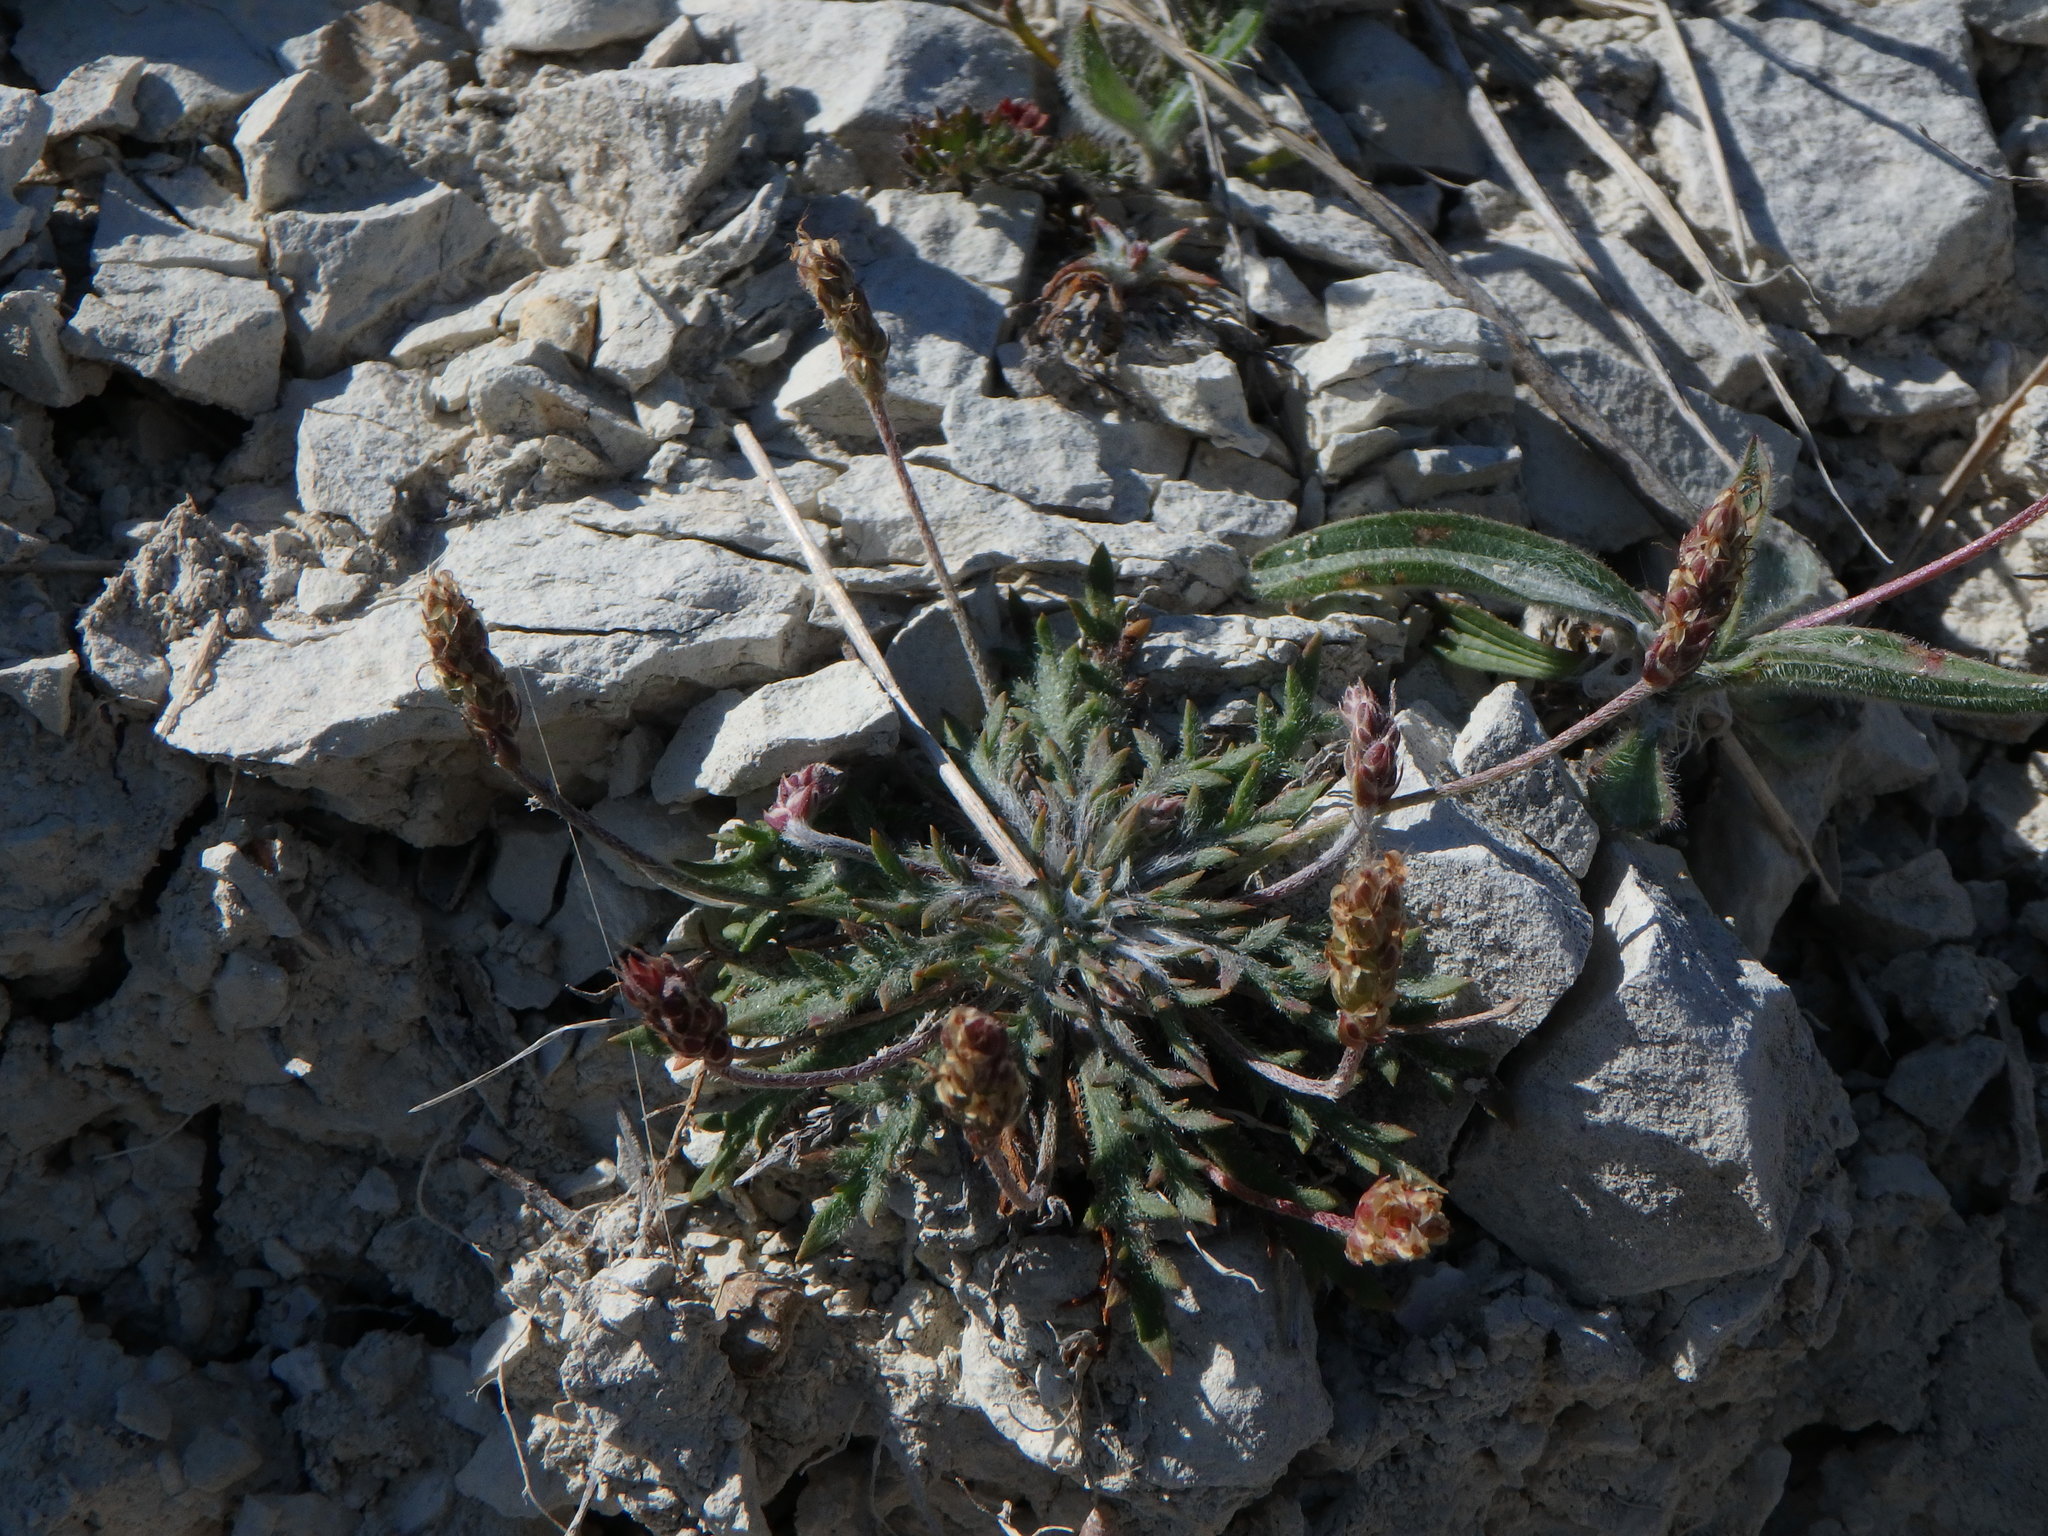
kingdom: Plantae
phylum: Tracheophyta
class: Magnoliopsida
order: Lamiales
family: Plantaginaceae
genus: Plantago
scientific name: Plantago coronopus
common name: Buck's-horn plantain
